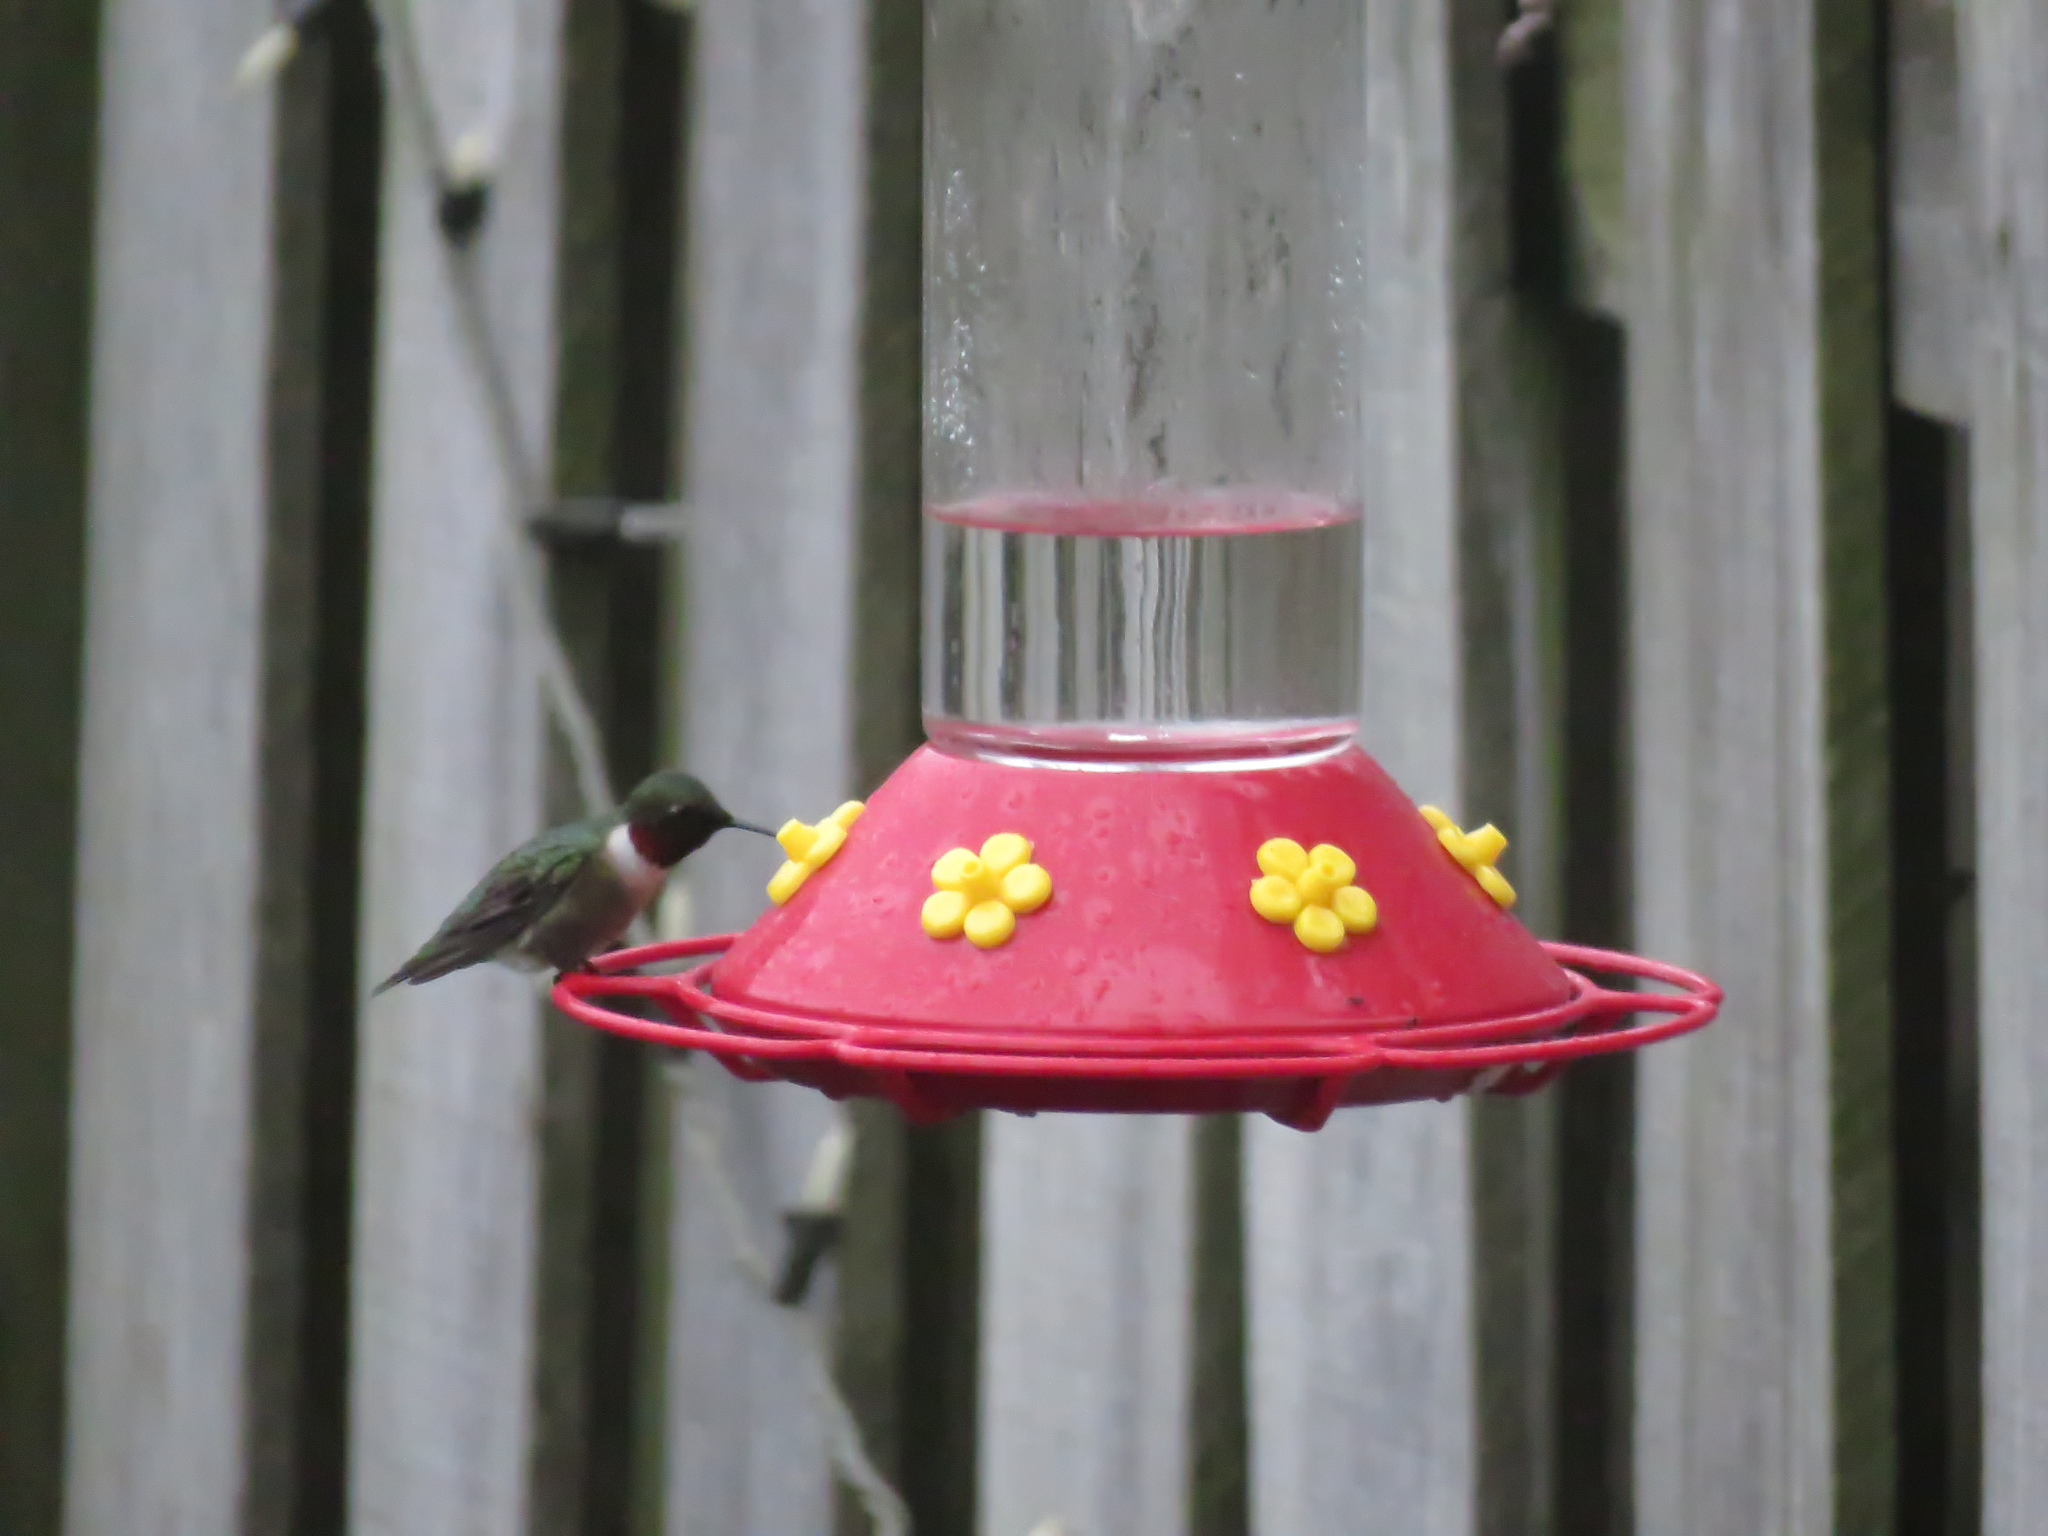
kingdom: Animalia
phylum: Chordata
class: Aves
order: Apodiformes
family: Trochilidae
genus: Archilochus
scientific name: Archilochus colubris
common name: Ruby-throated hummingbird
